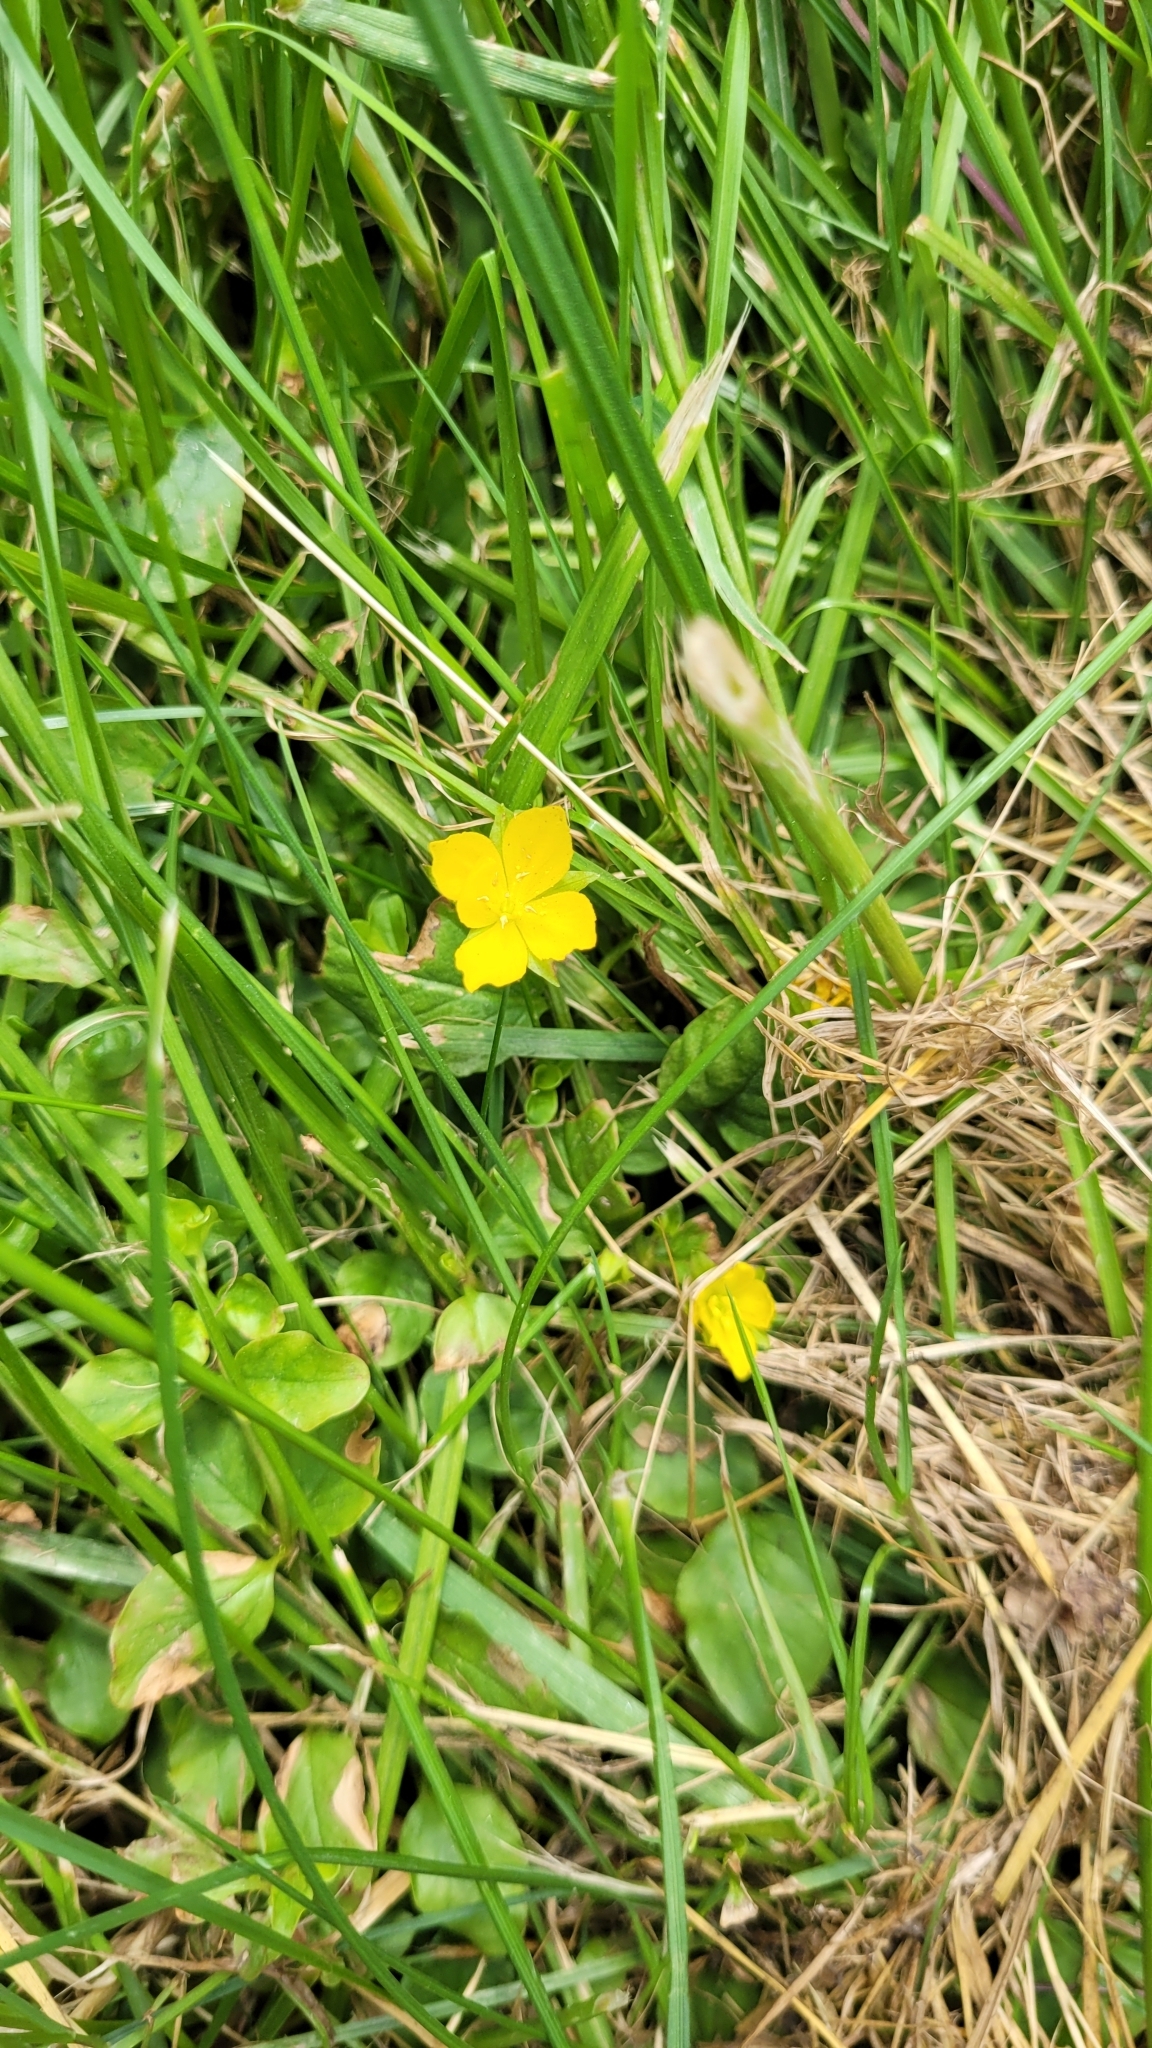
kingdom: Plantae
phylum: Tracheophyta
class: Magnoliopsida
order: Ericales
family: Primulaceae
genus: Lysimachia
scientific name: Lysimachia nummularia
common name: Moneywort
